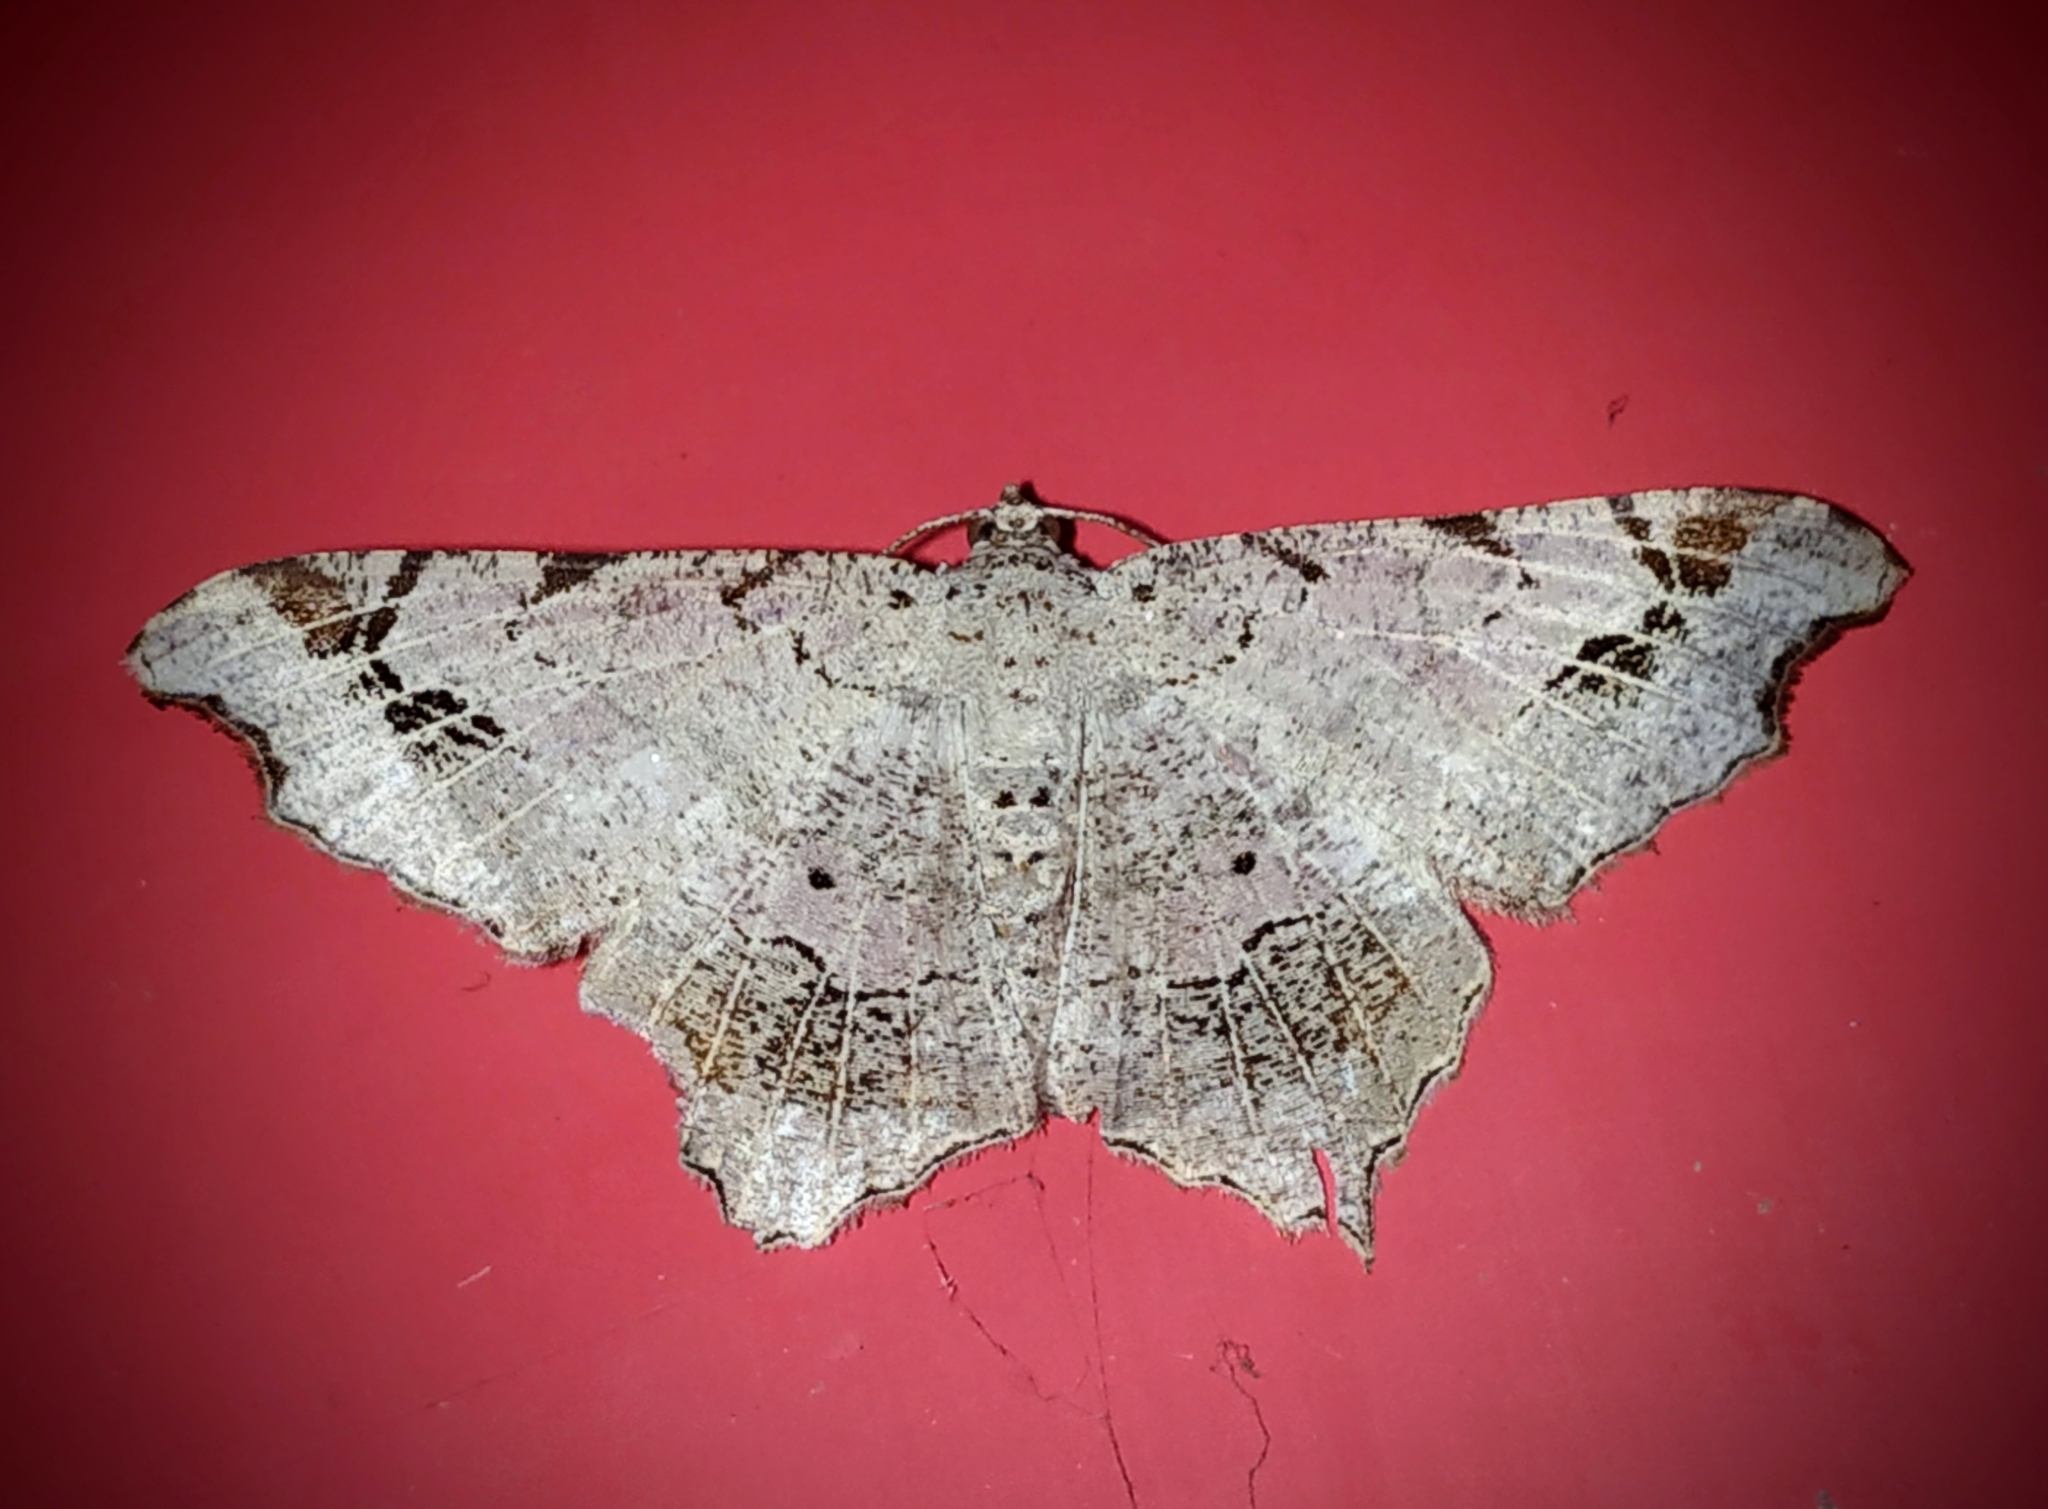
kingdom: Animalia
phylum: Arthropoda
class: Insecta
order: Lepidoptera
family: Geometridae
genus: Chiasmia
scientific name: Chiasmia emersaria
